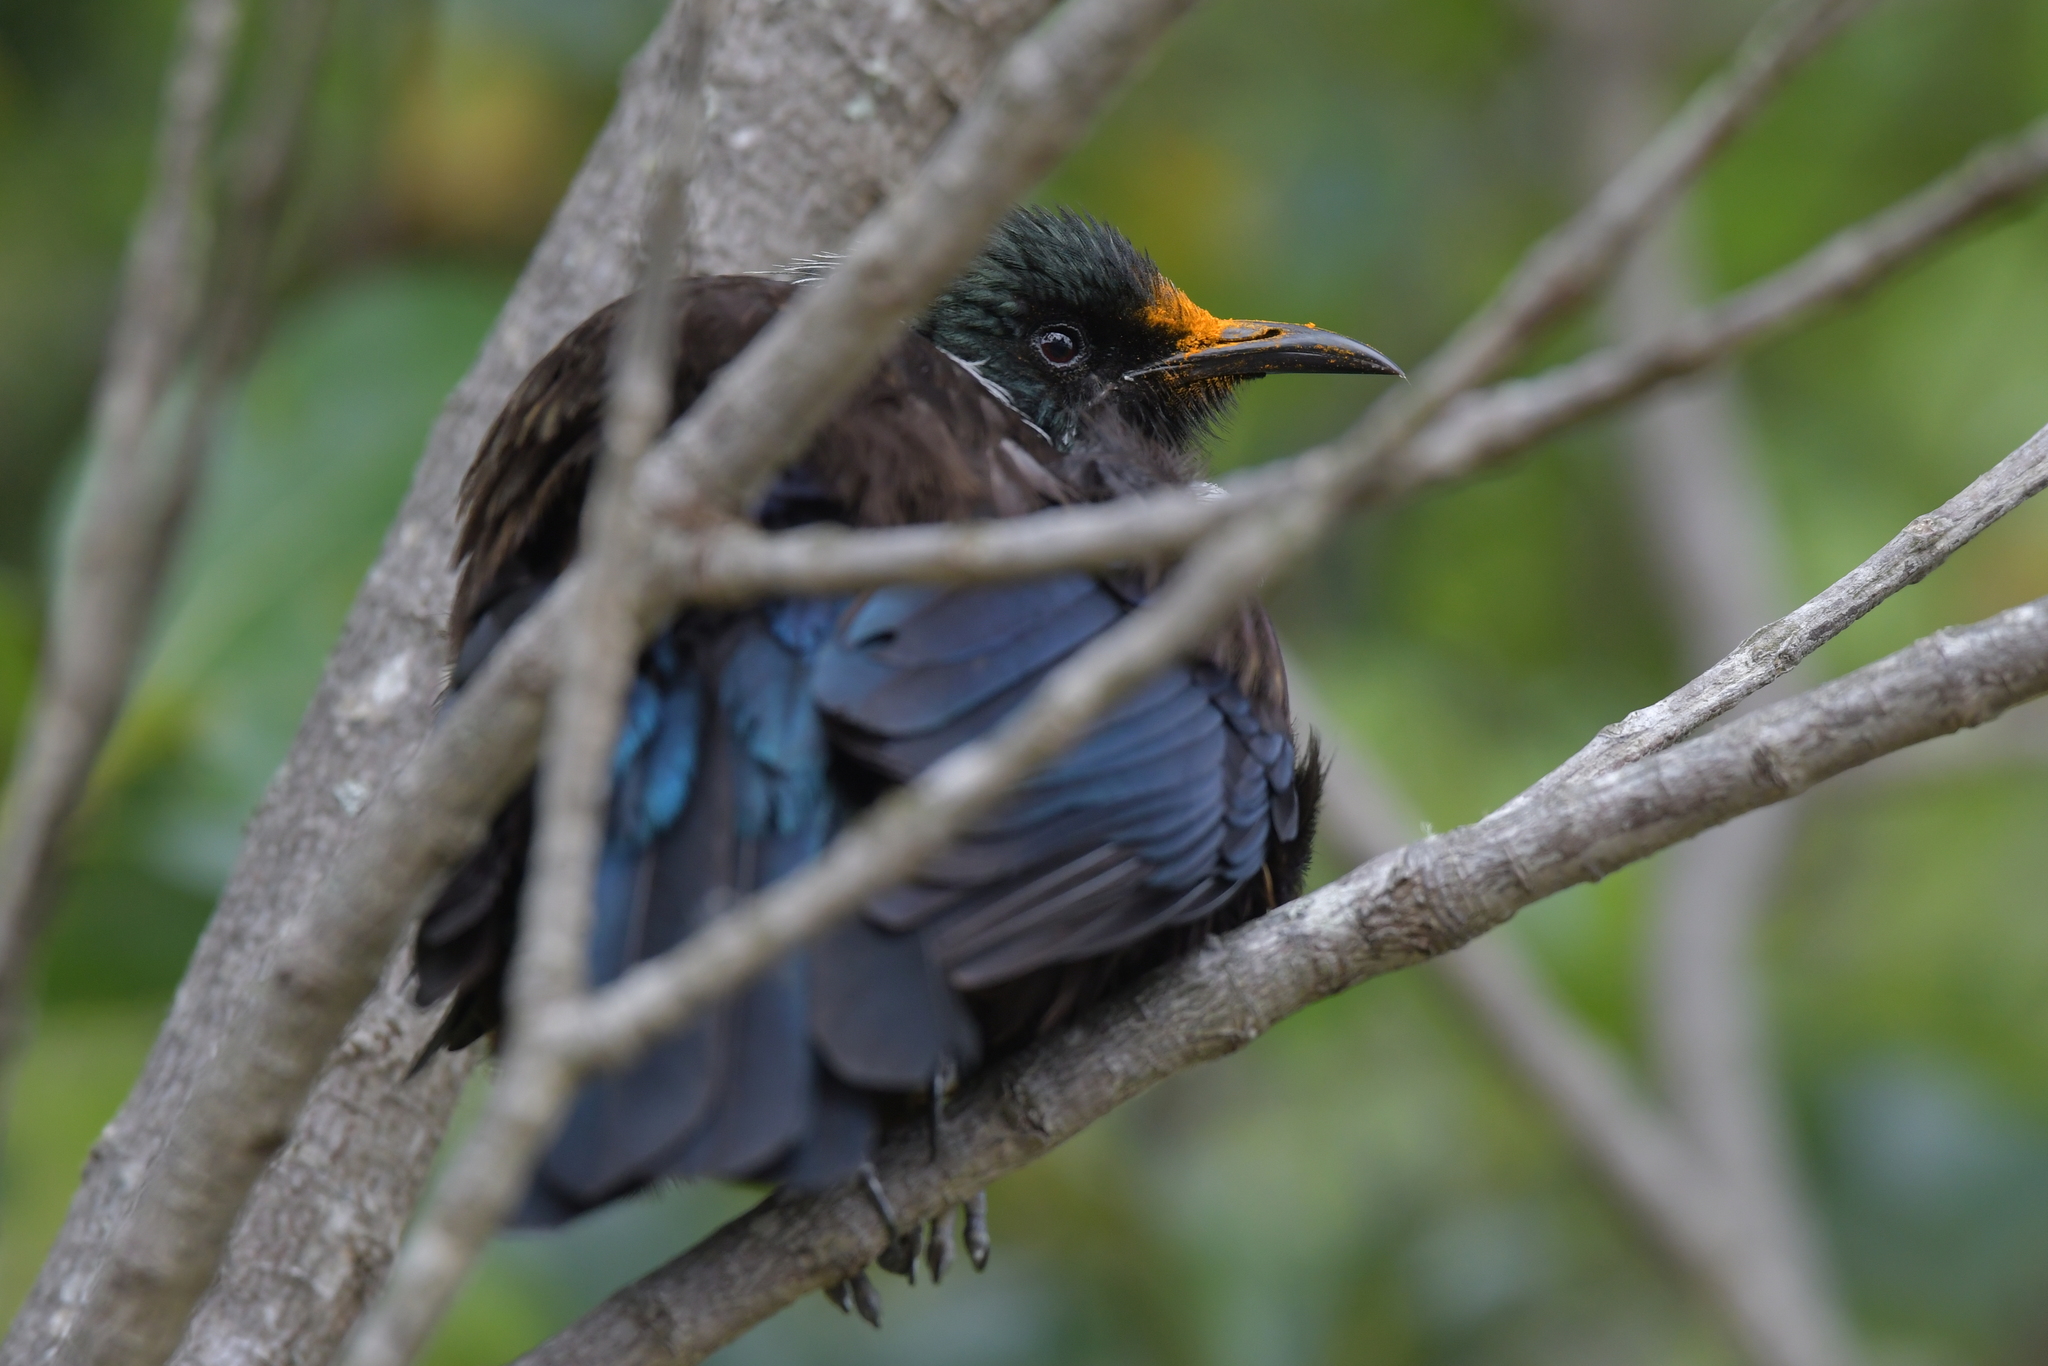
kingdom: Animalia
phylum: Chordata
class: Aves
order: Passeriformes
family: Meliphagidae
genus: Prosthemadera
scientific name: Prosthemadera novaeseelandiae
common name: Tui
